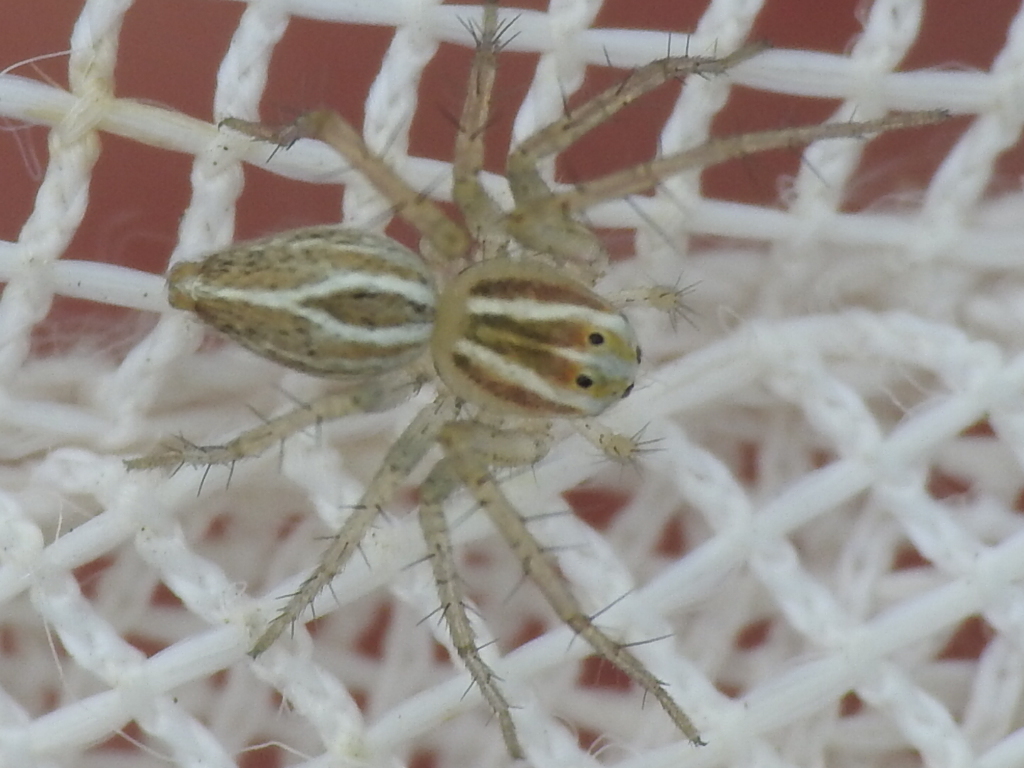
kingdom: Animalia
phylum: Arthropoda
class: Arachnida
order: Araneae
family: Oxyopidae
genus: Oxyopes
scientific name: Oxyopes salticus
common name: Lynx spiders
